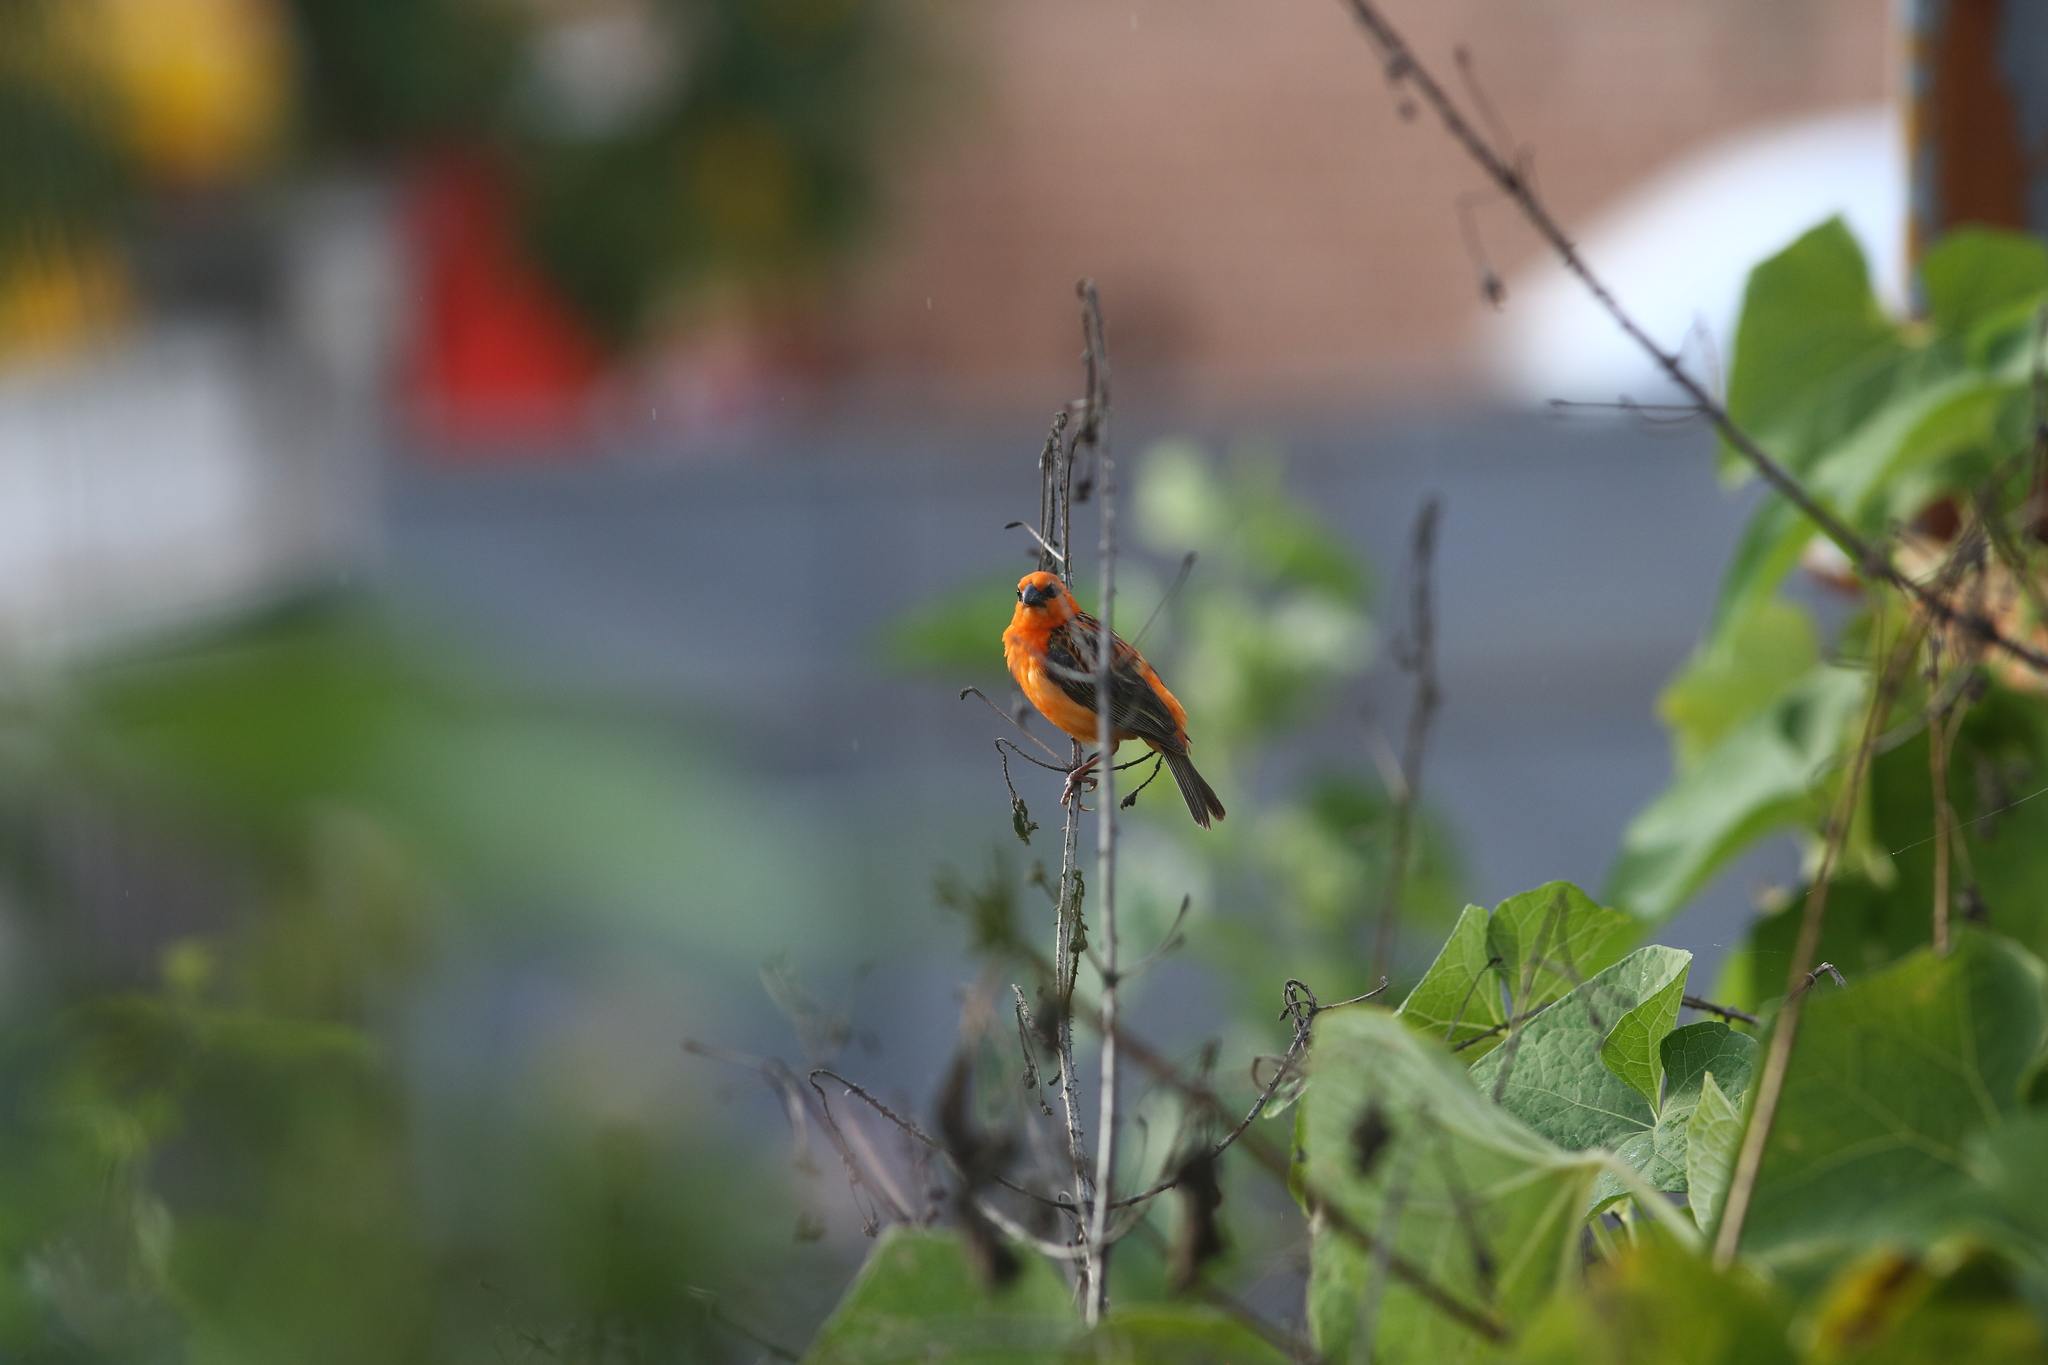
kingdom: Animalia
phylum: Chordata
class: Aves
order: Passeriformes
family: Ploceidae
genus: Foudia
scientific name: Foudia madagascariensis
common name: Red fody
